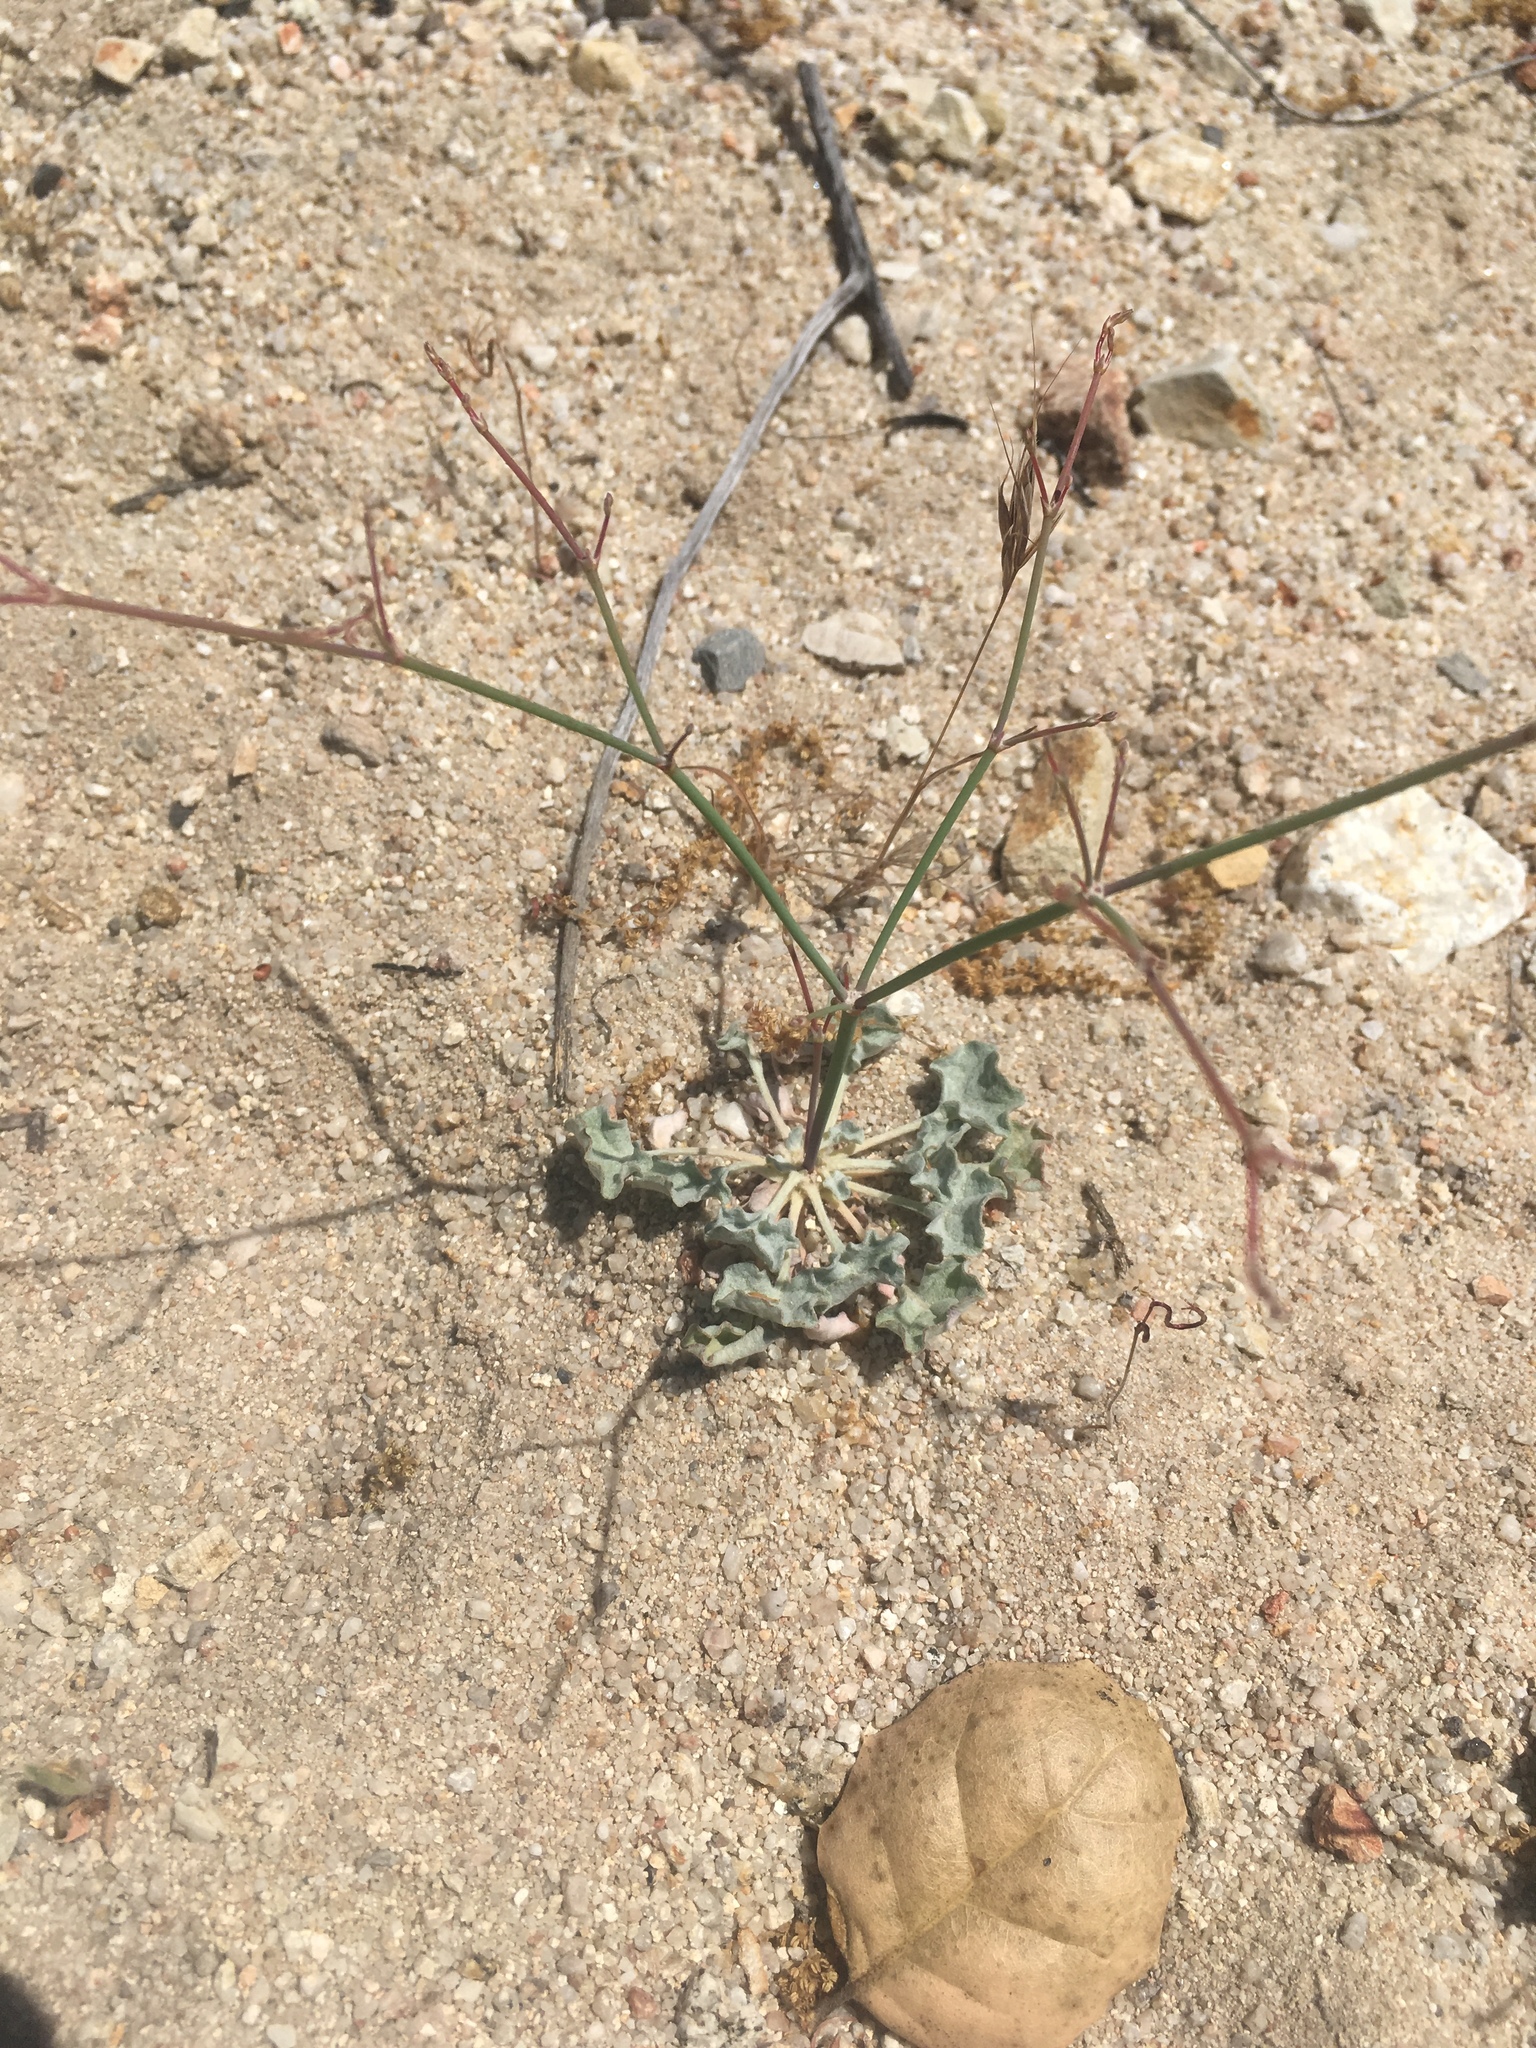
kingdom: Plantae
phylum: Tracheophyta
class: Magnoliopsida
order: Caryophyllales
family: Polygonaceae
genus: Eriogonum
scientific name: Eriogonum elegans
